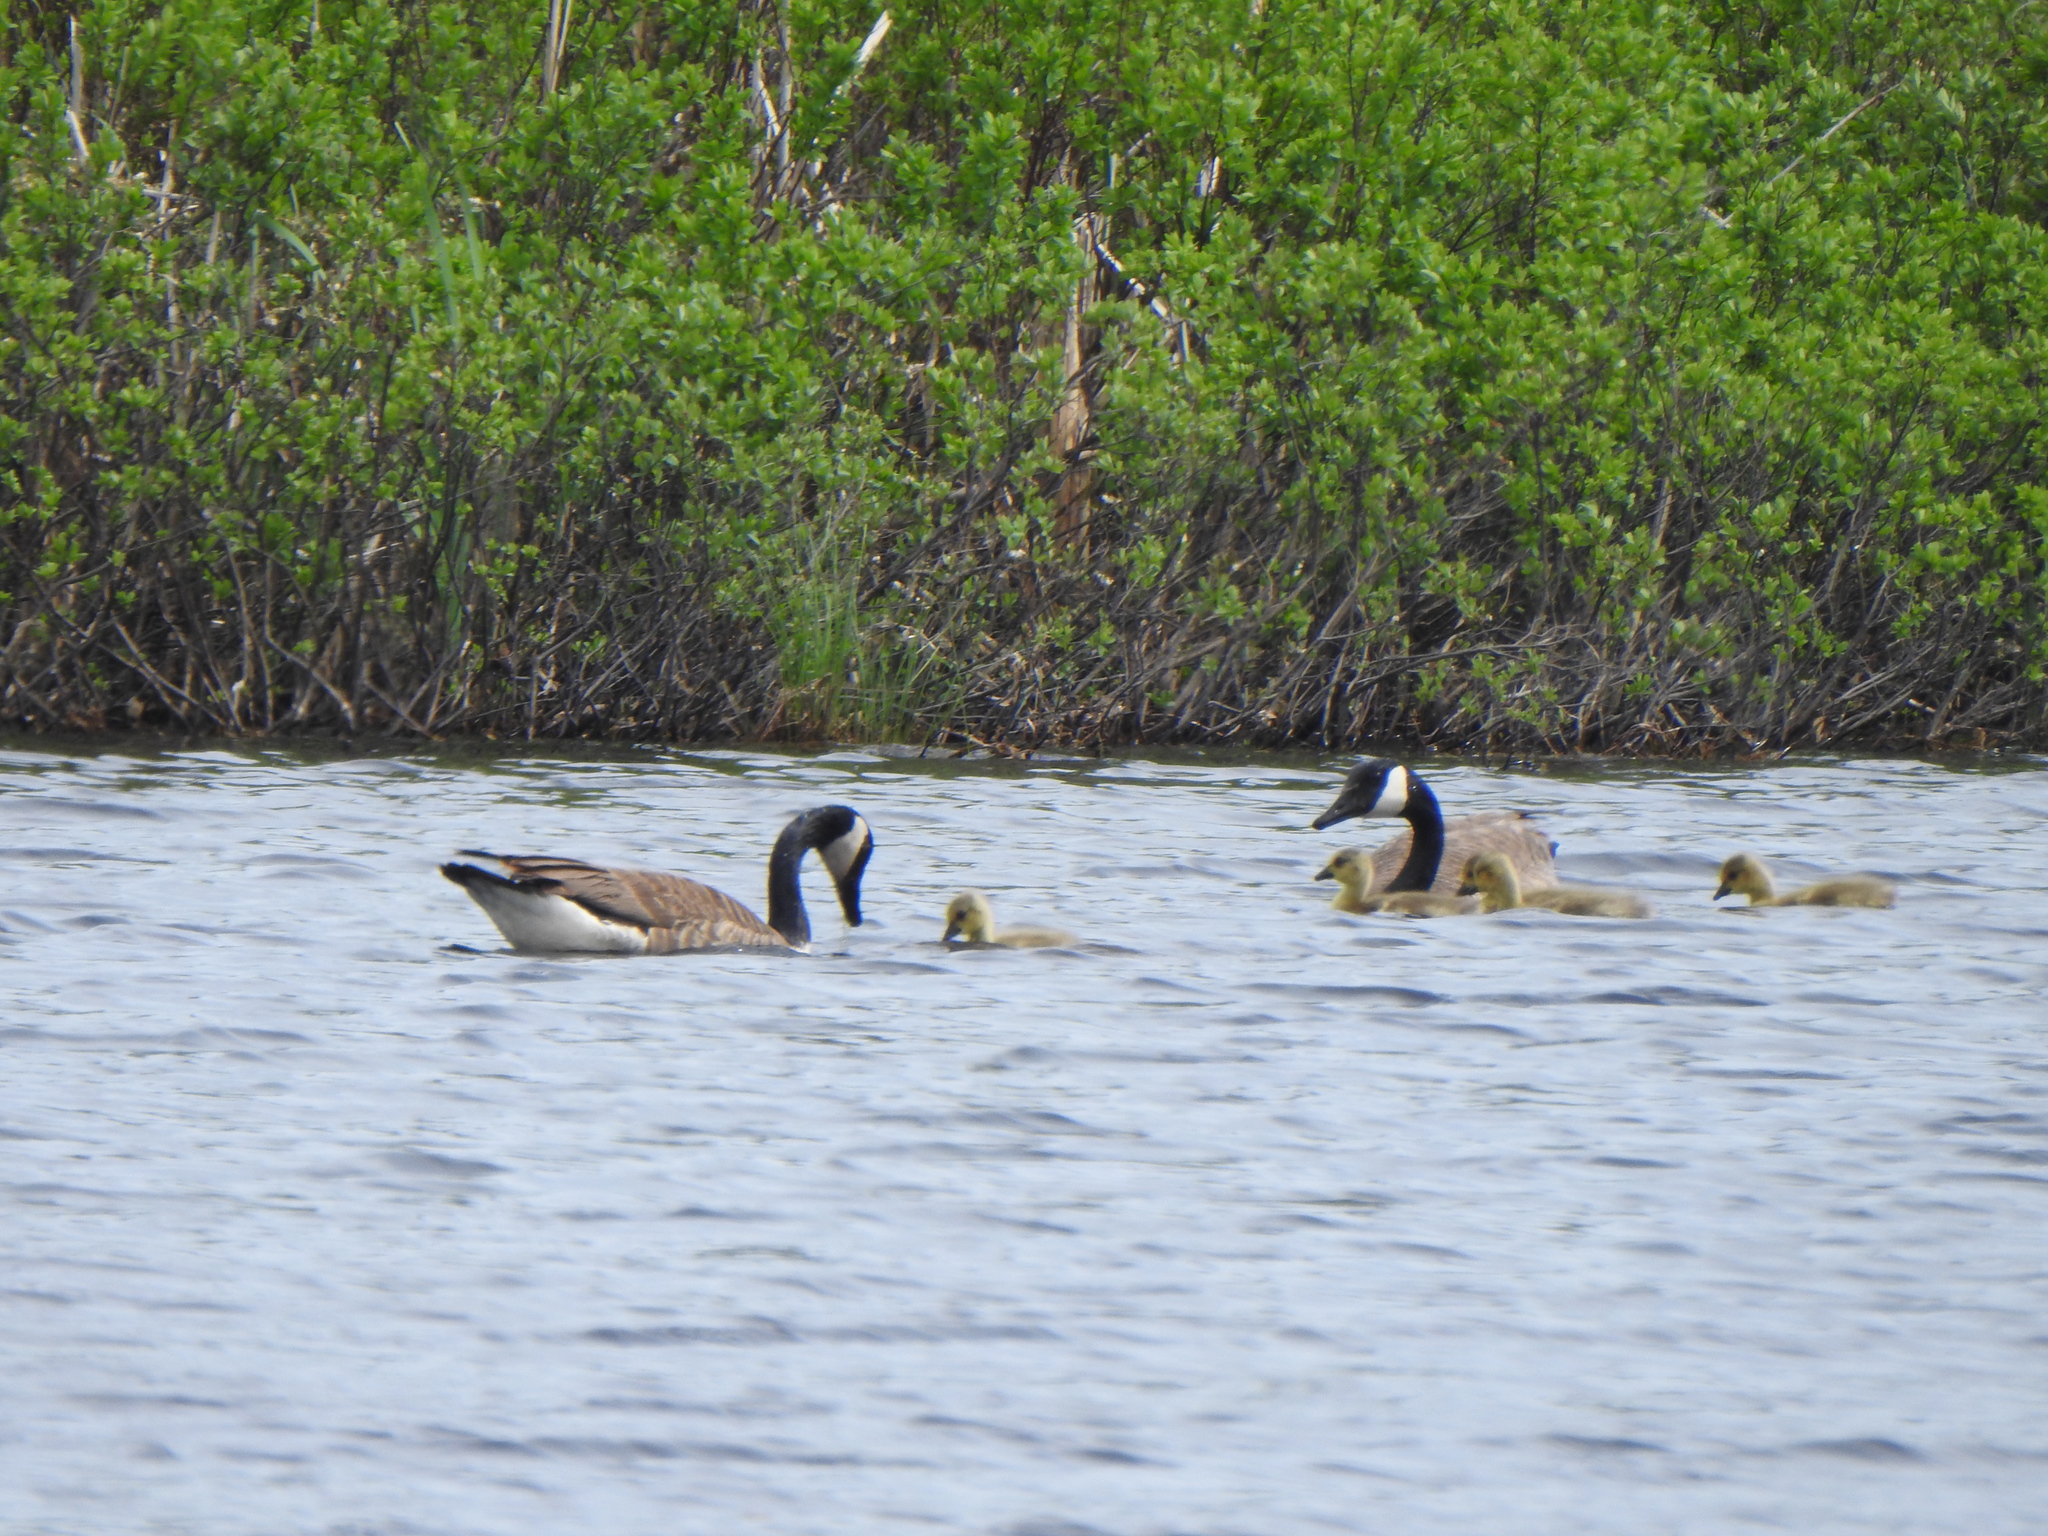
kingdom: Animalia
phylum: Chordata
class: Aves
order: Anseriformes
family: Anatidae
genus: Branta
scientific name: Branta canadensis
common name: Canada goose
